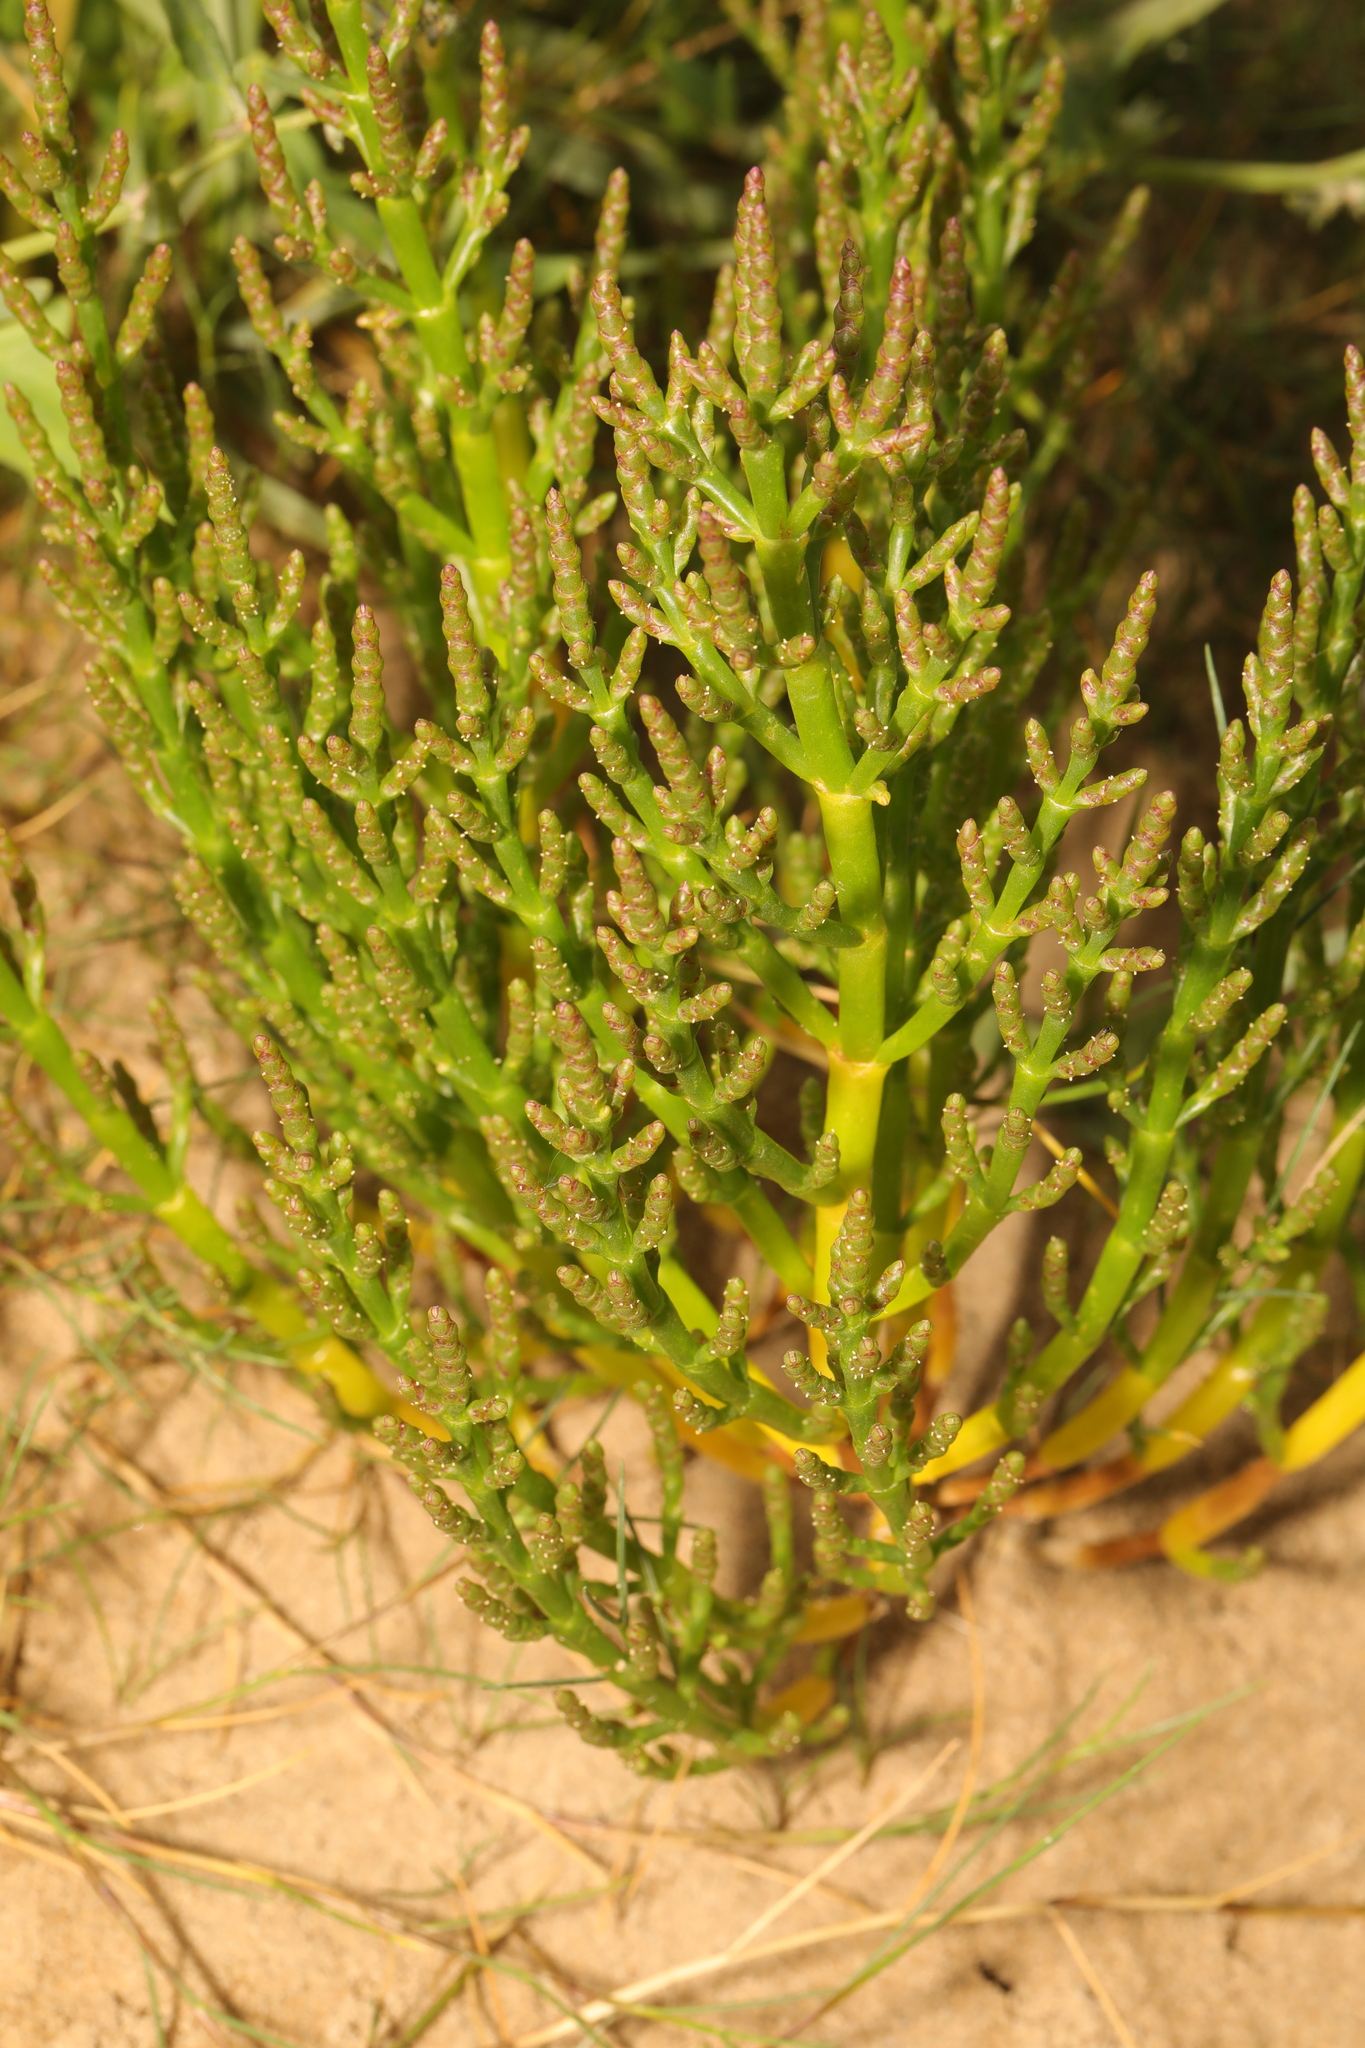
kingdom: Plantae
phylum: Tracheophyta
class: Magnoliopsida
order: Caryophyllales
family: Amaranthaceae
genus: Salicornia
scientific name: Salicornia europaea
